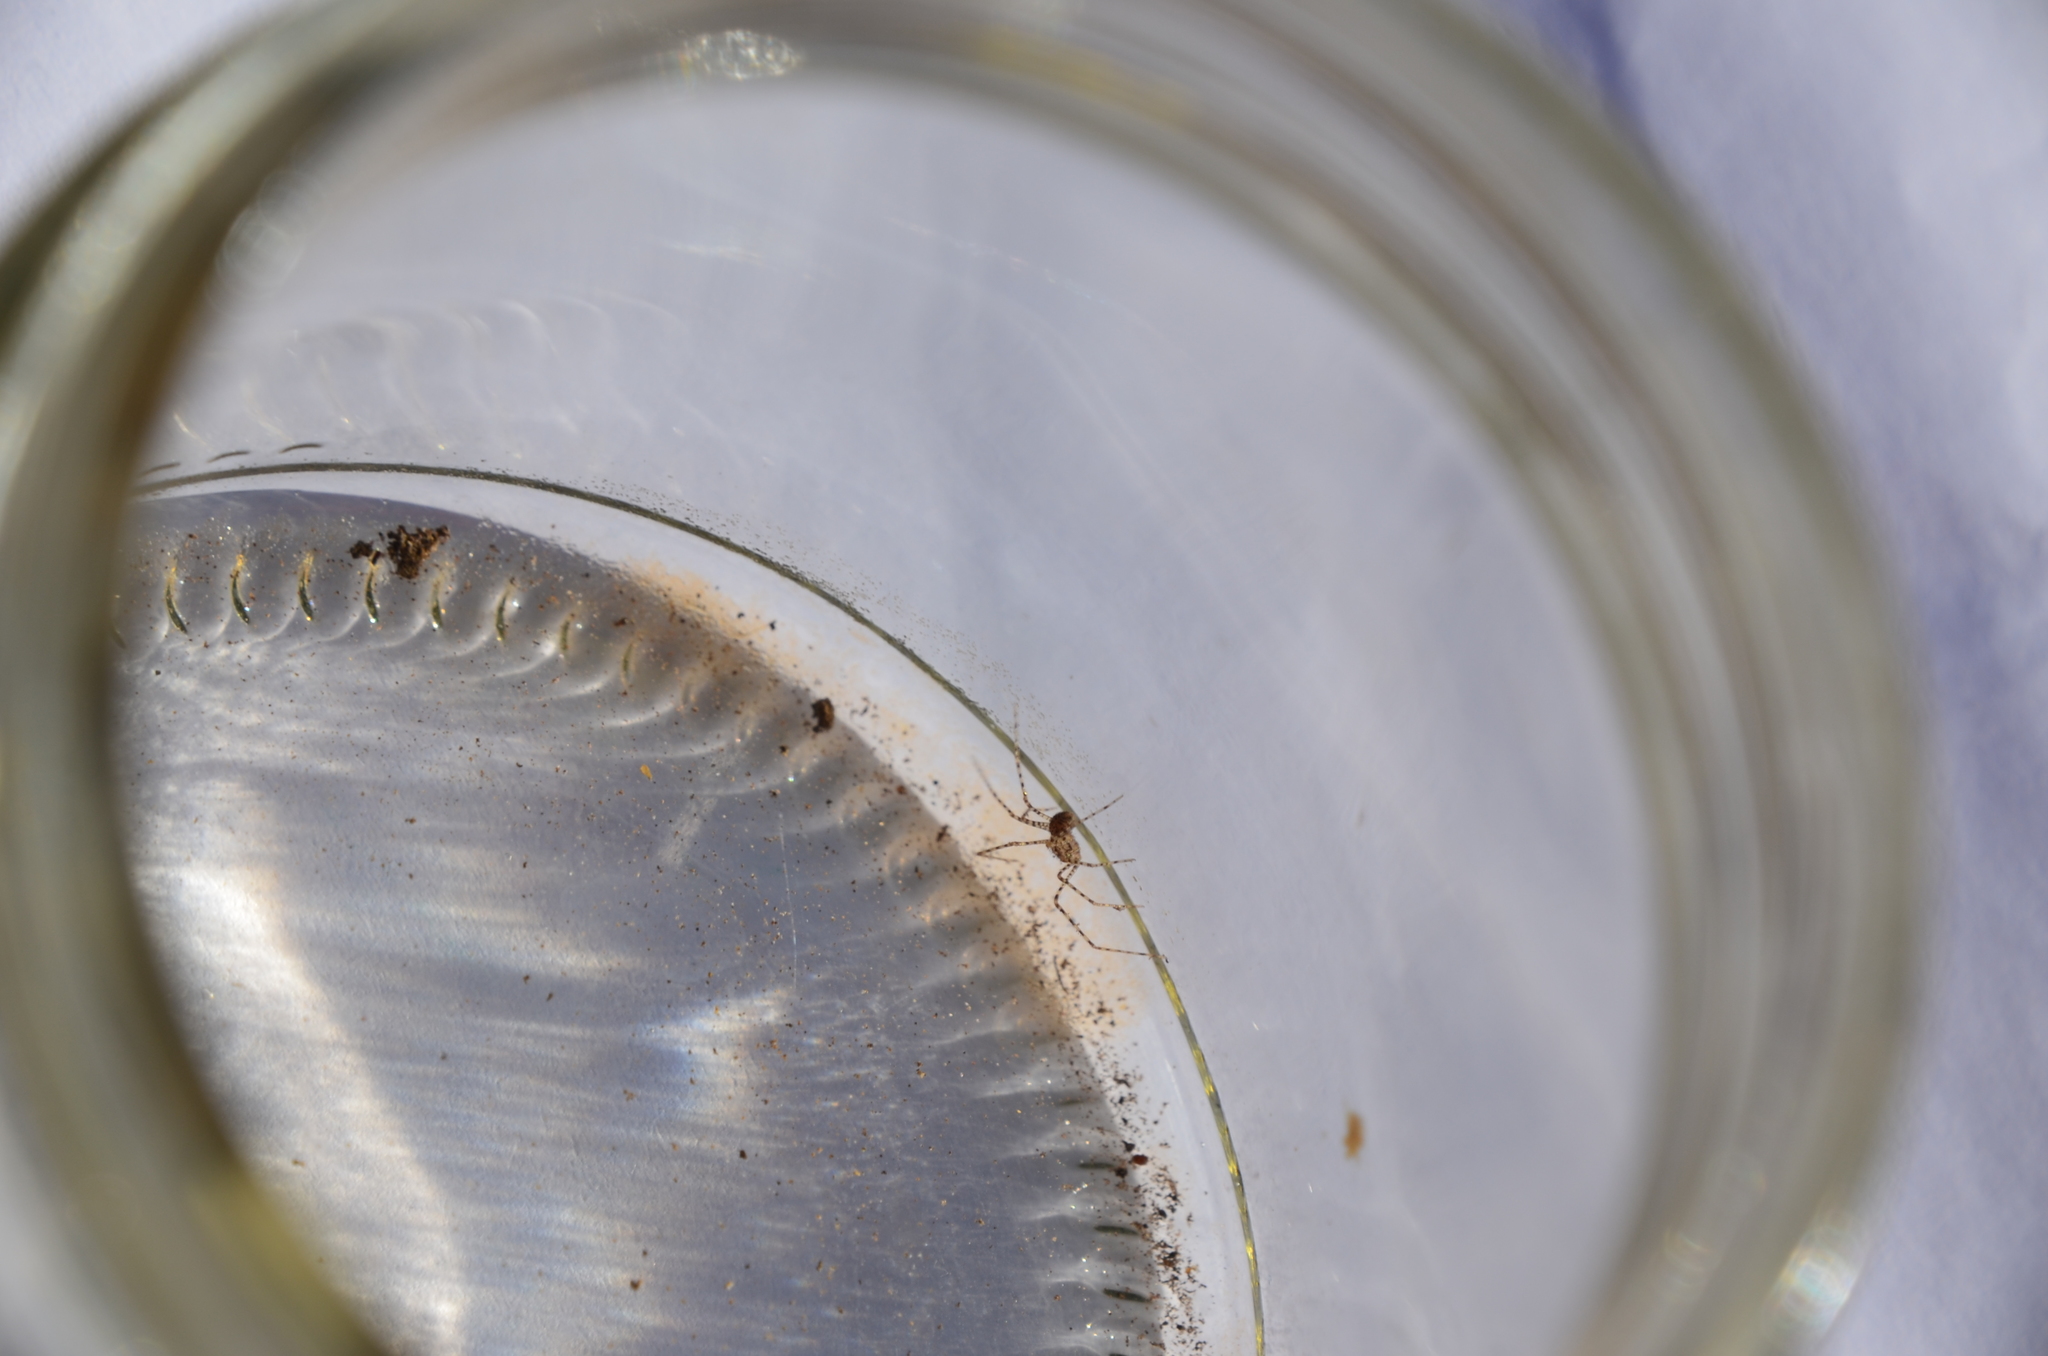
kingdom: Animalia
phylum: Arthropoda
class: Arachnida
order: Araneae
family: Scytodidae
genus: Scytodes
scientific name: Scytodes globula
